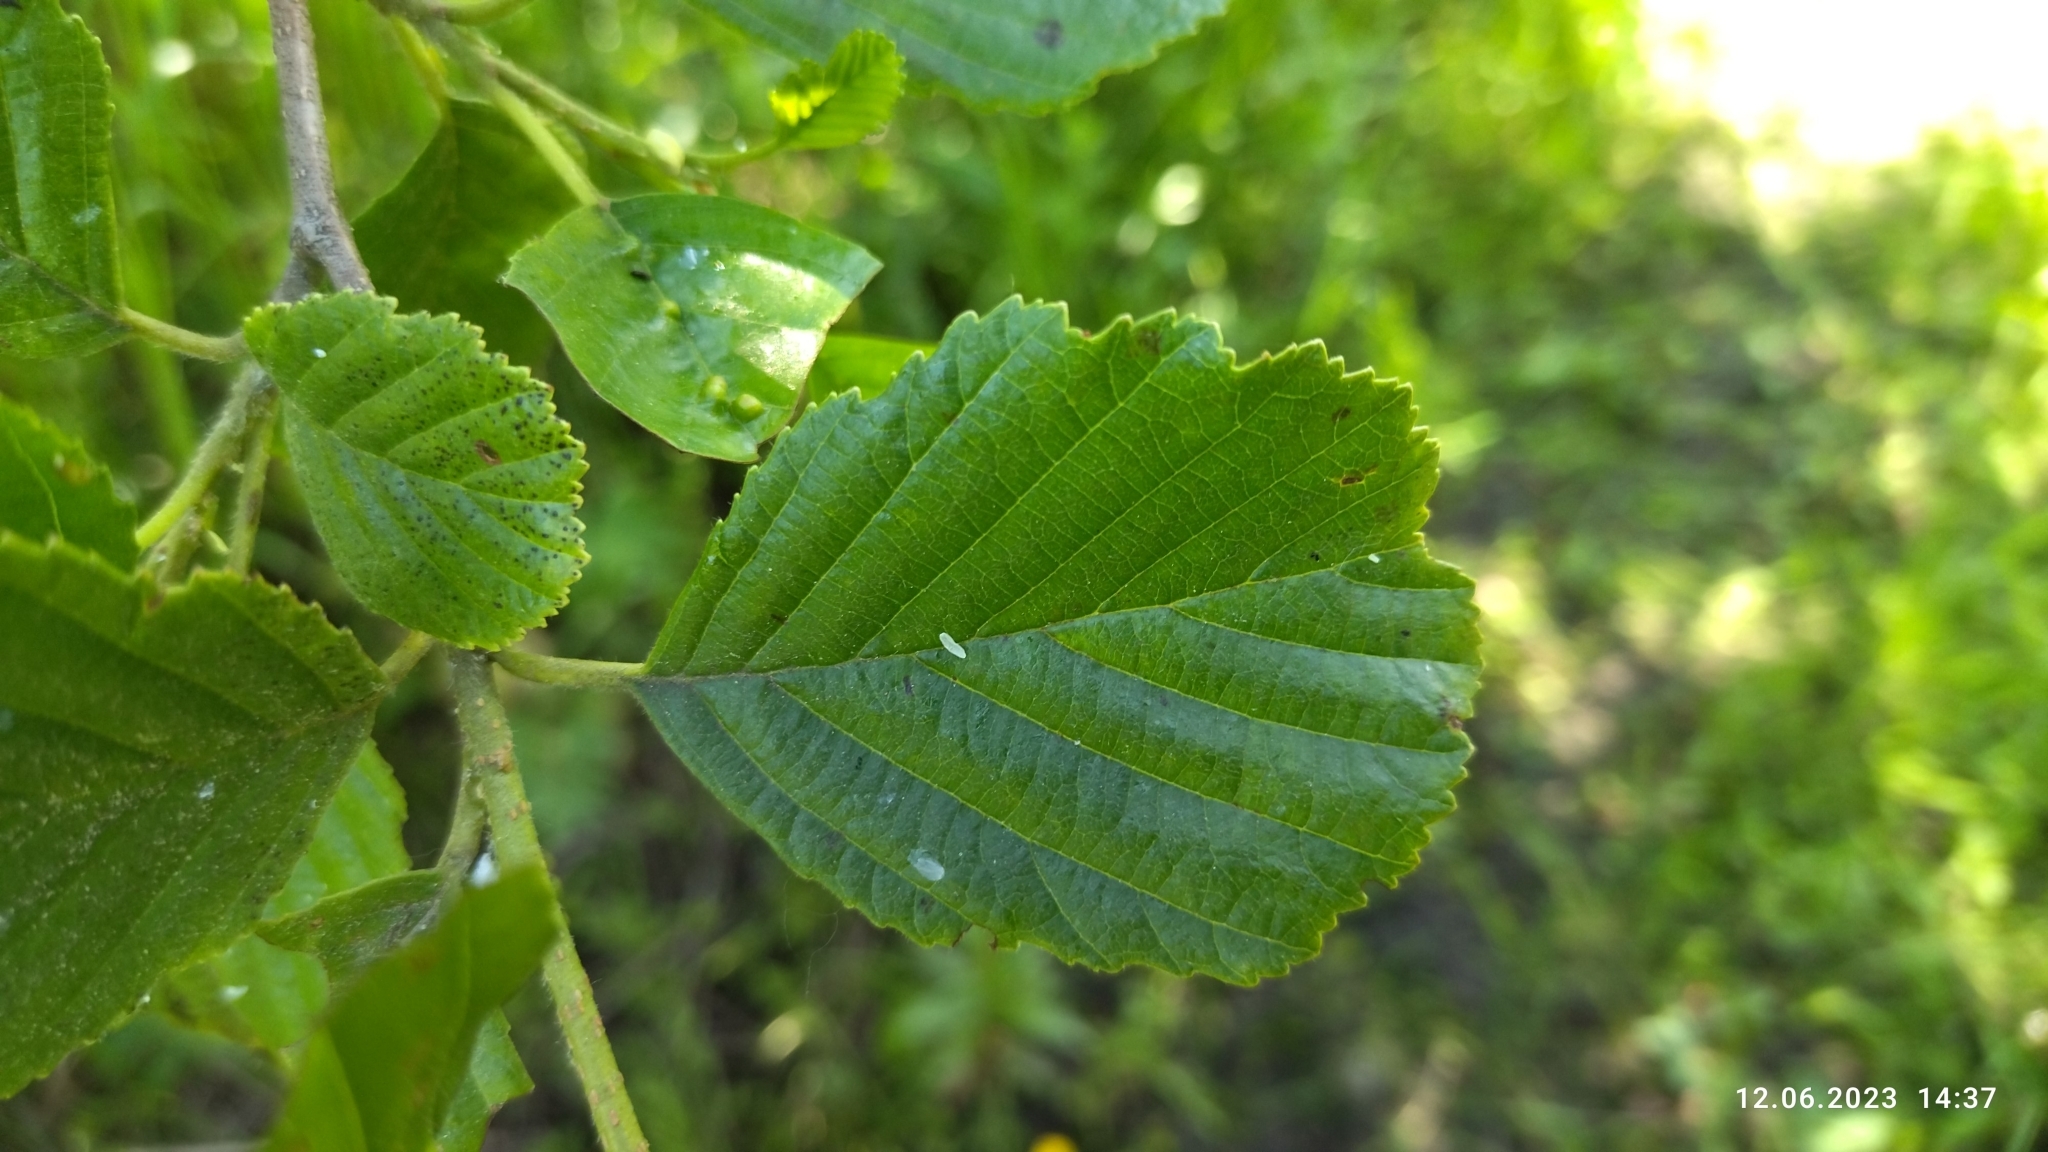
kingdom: Plantae
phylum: Tracheophyta
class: Magnoliopsida
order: Fagales
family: Betulaceae
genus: Alnus
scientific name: Alnus glutinosa
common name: Black alder
